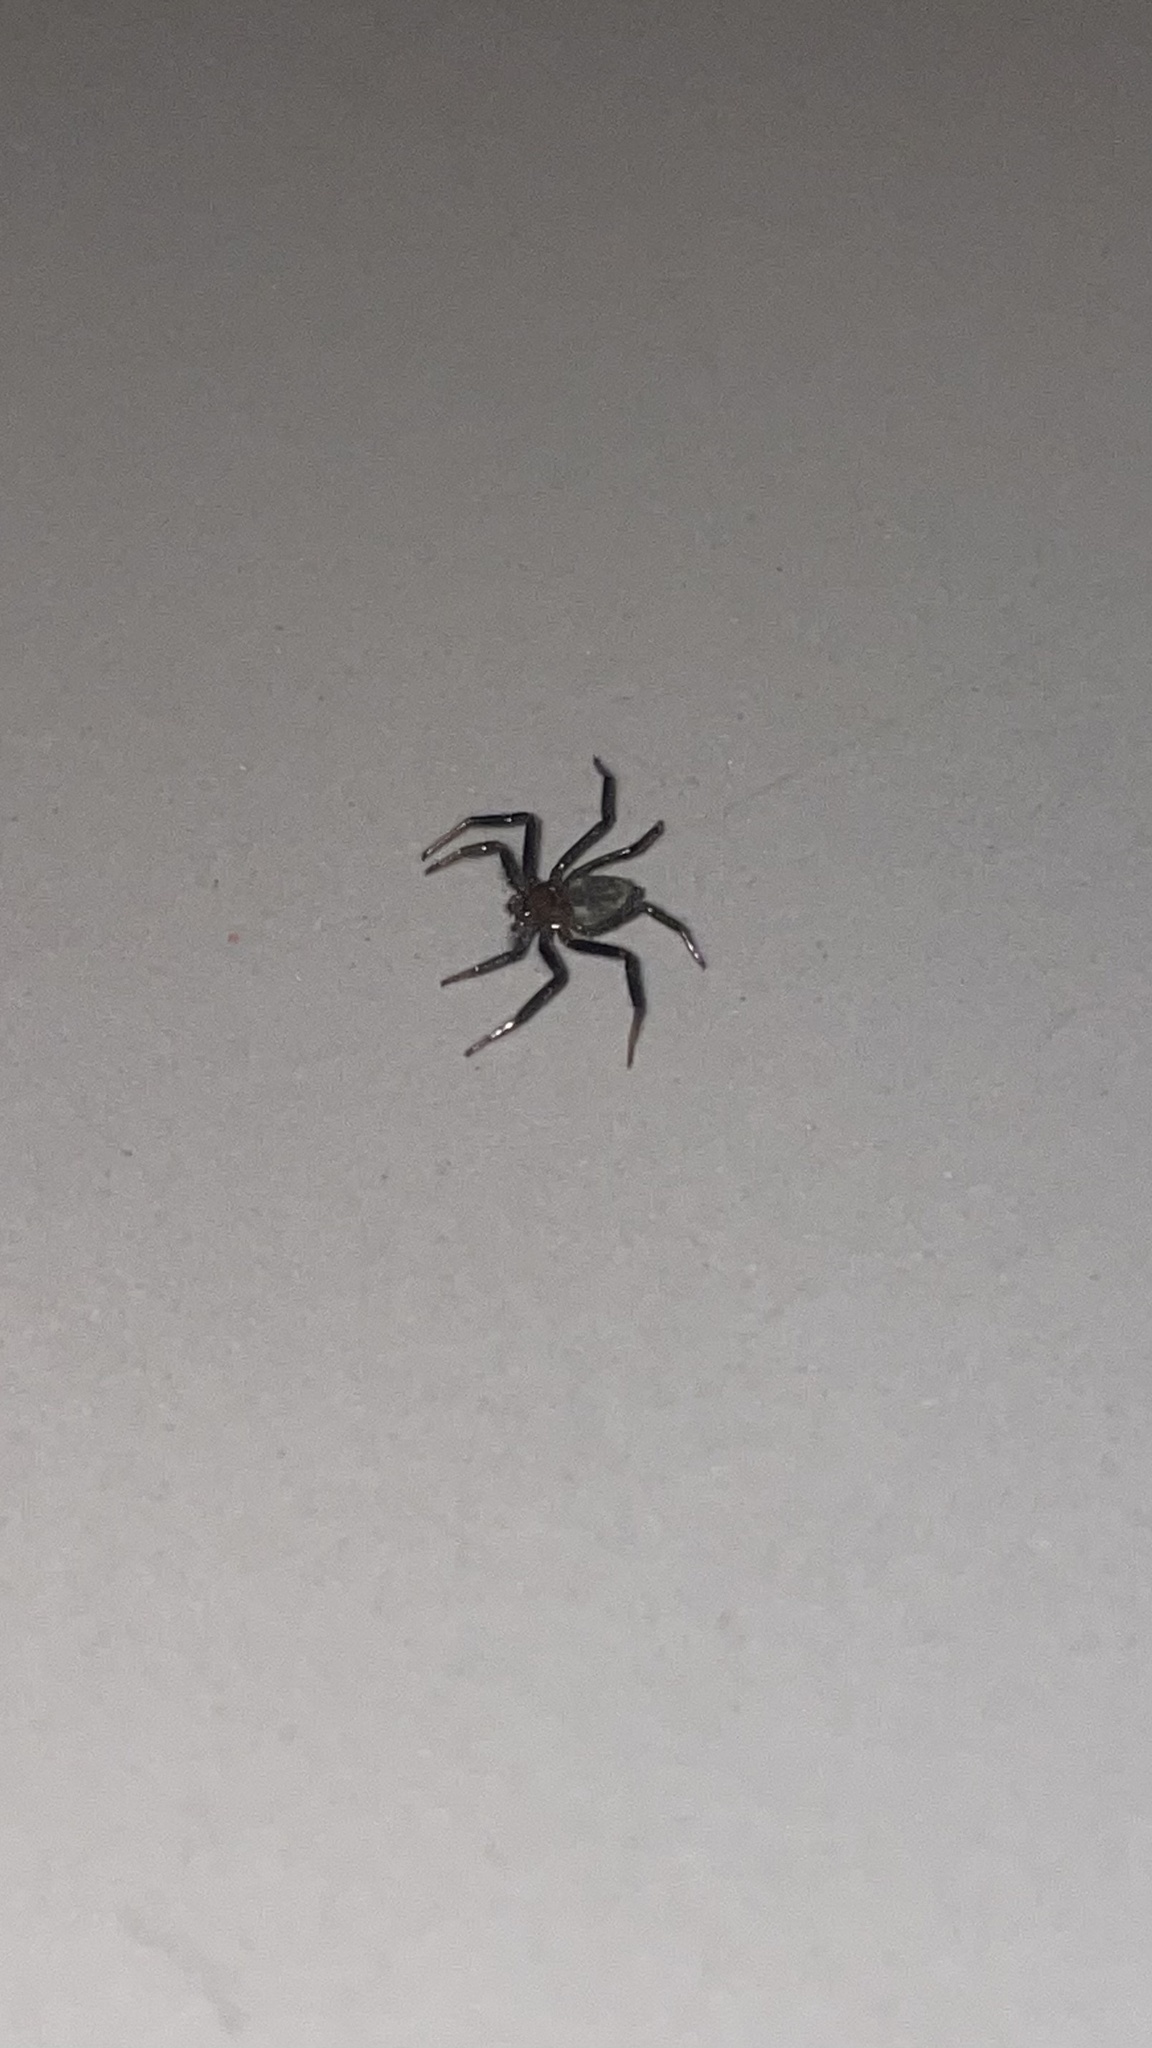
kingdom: Animalia
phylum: Arthropoda
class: Arachnida
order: Araneae
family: Trochanteriidae
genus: Vectius
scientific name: Vectius niger
